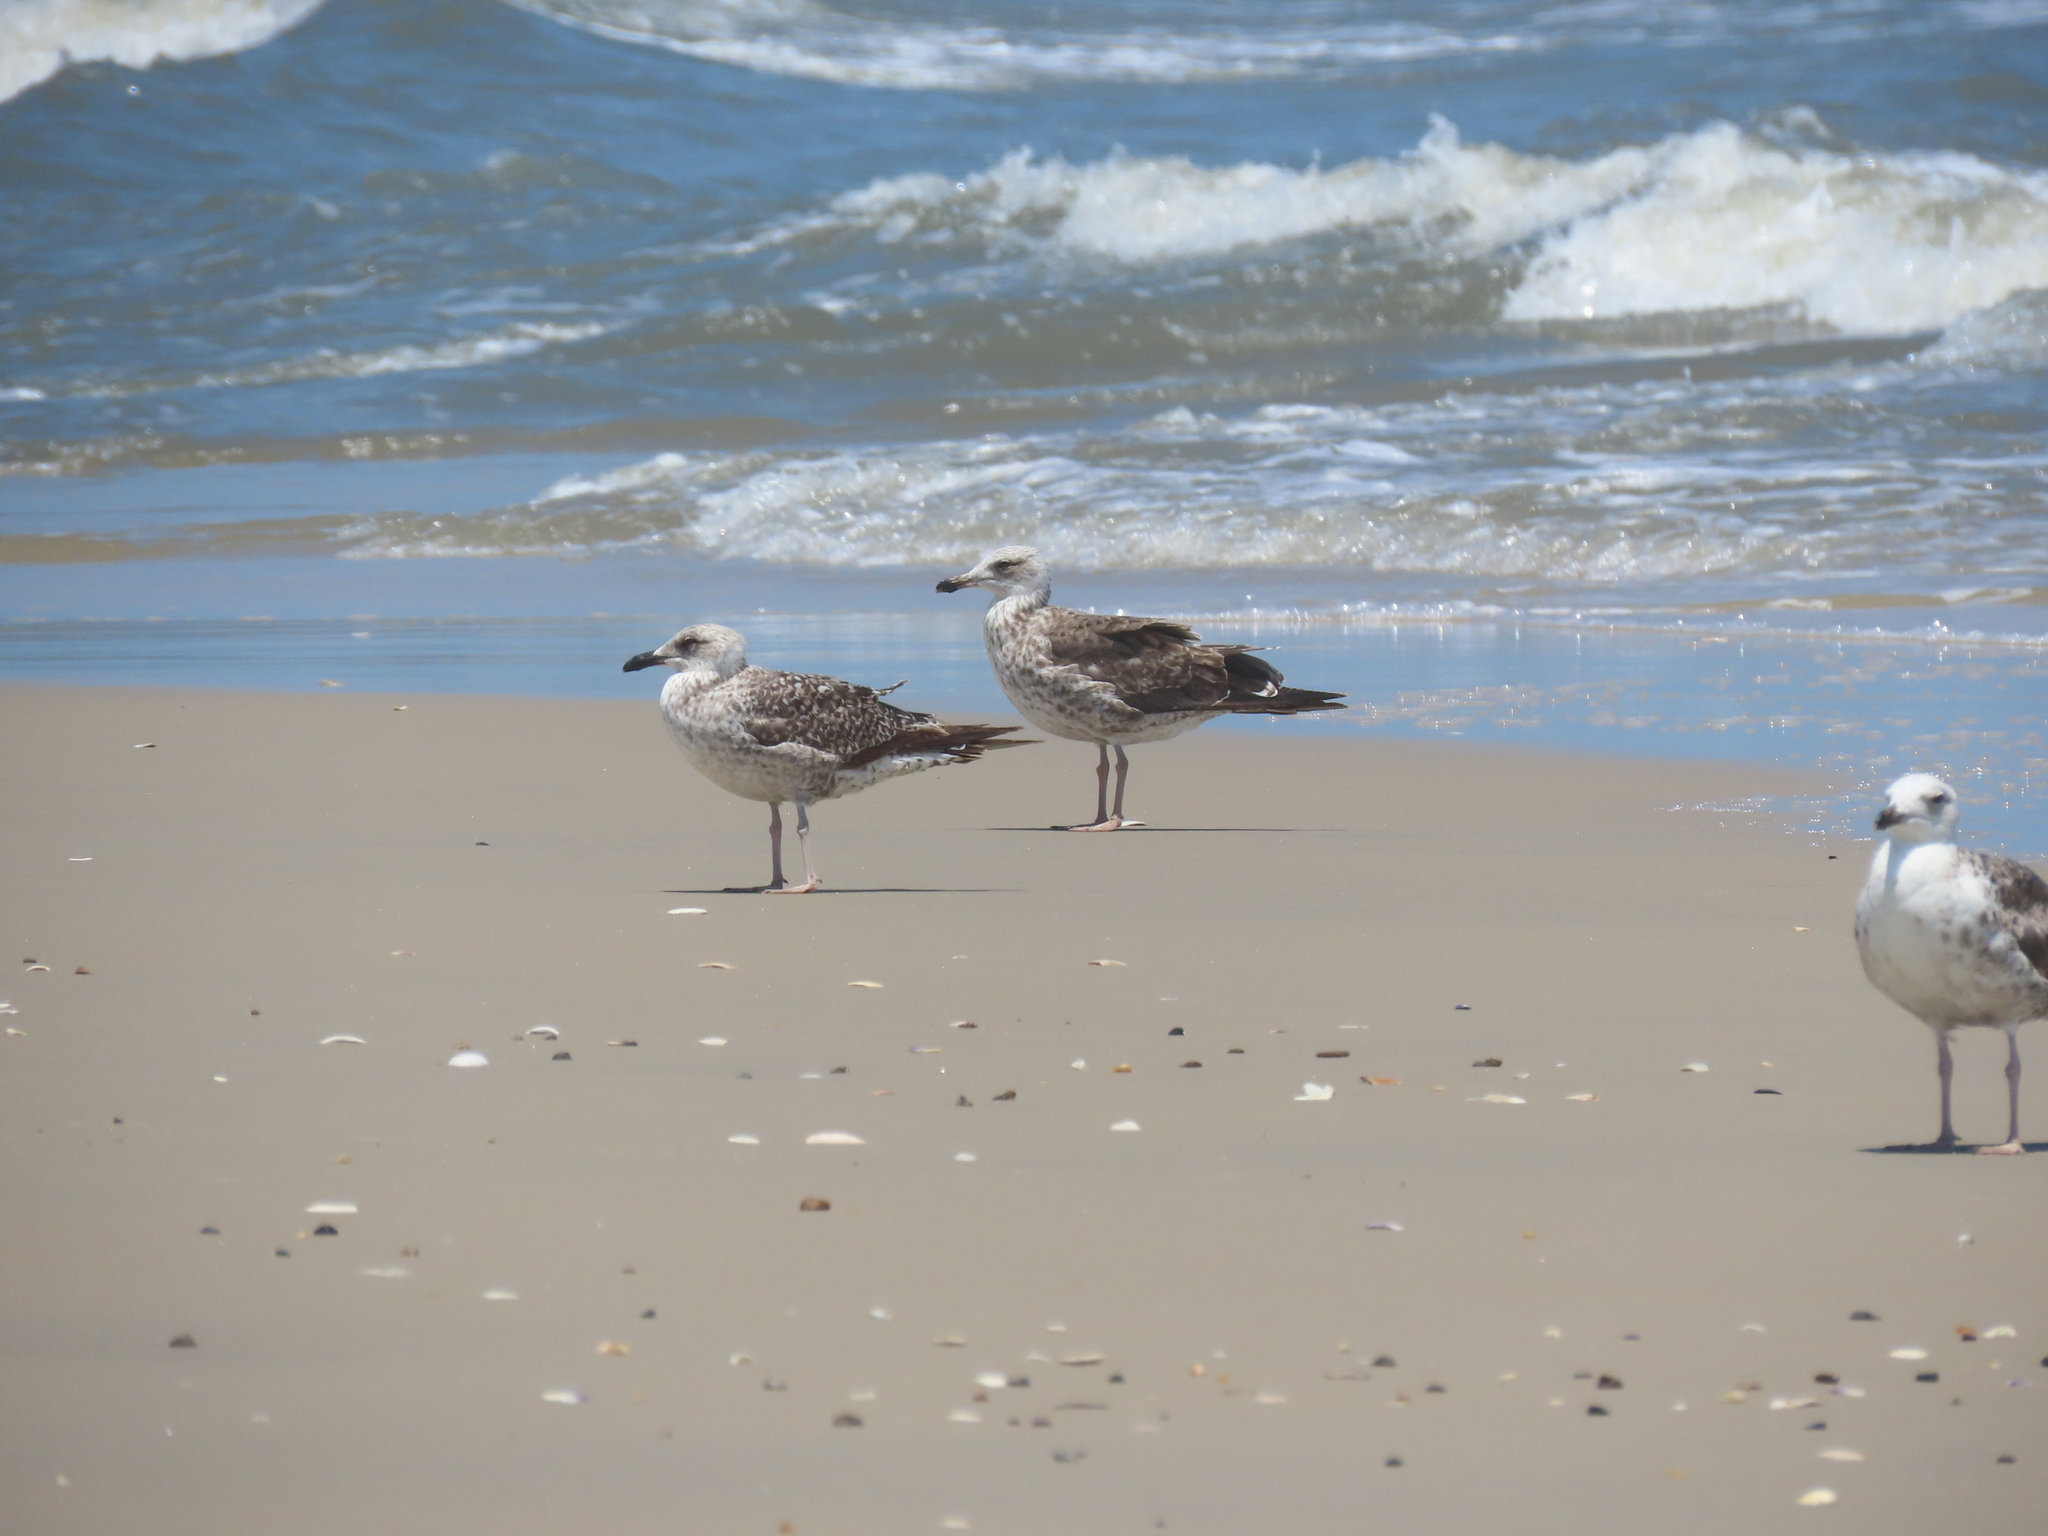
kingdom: Animalia
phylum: Chordata
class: Aves
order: Charadriiformes
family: Laridae
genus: Larus
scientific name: Larus fuscus
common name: Lesser black-backed gull
